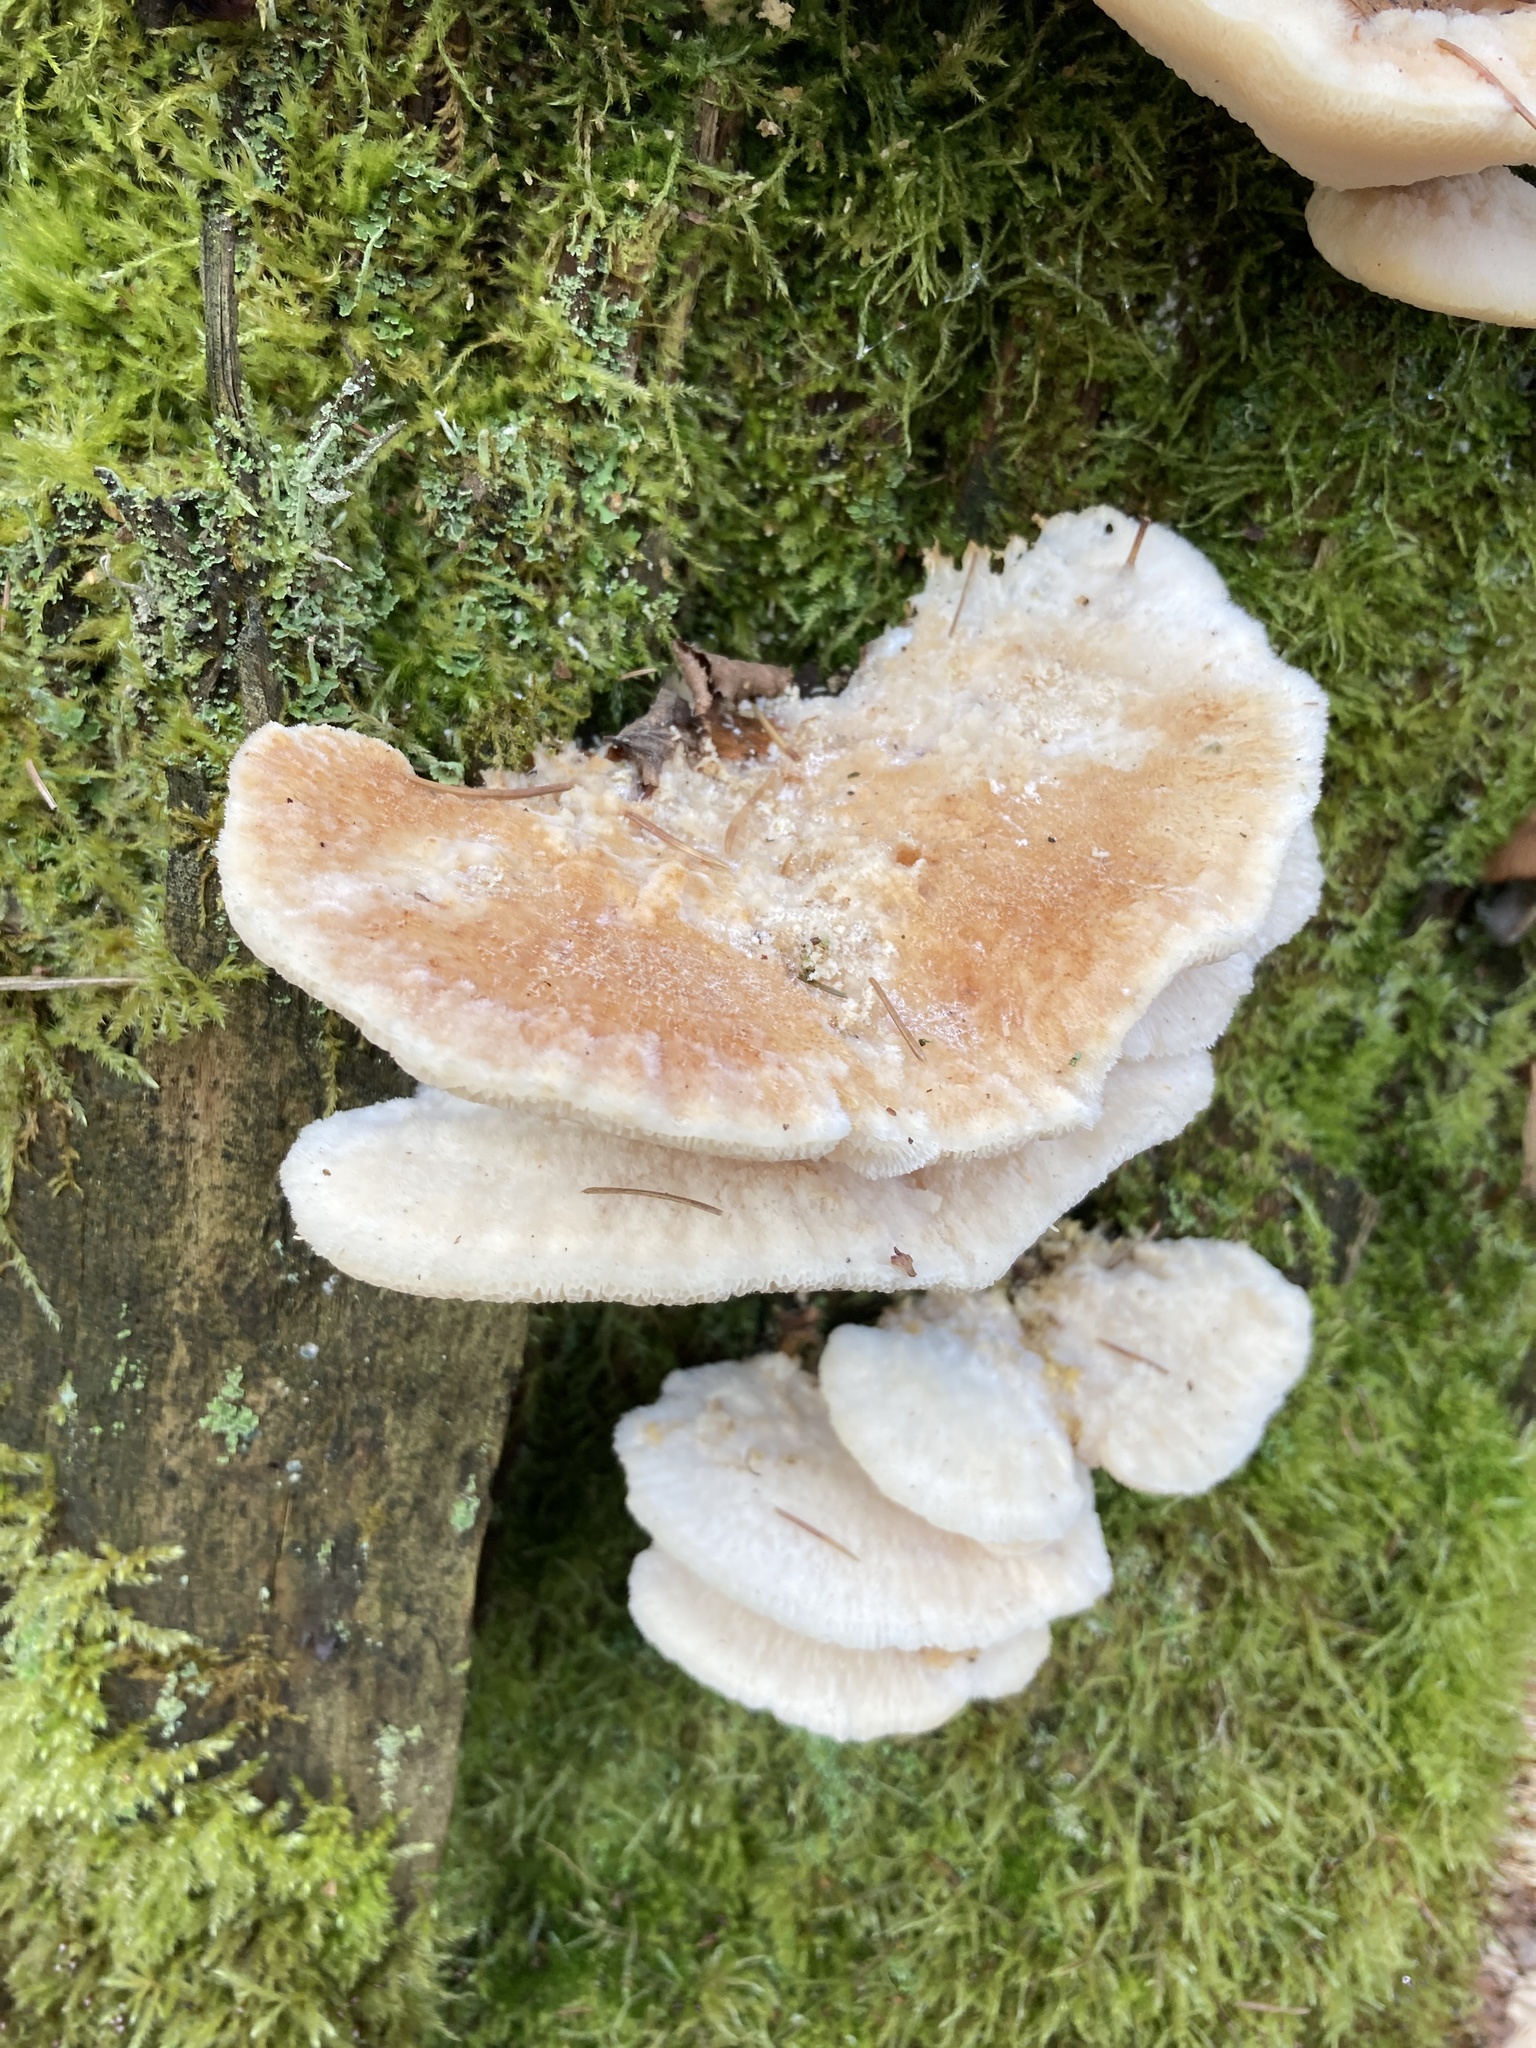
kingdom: Fungi
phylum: Basidiomycota
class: Agaricomycetes
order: Polyporales
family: Fomitopsidaceae
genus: Climacocystis
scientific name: Climacocystis borealis
